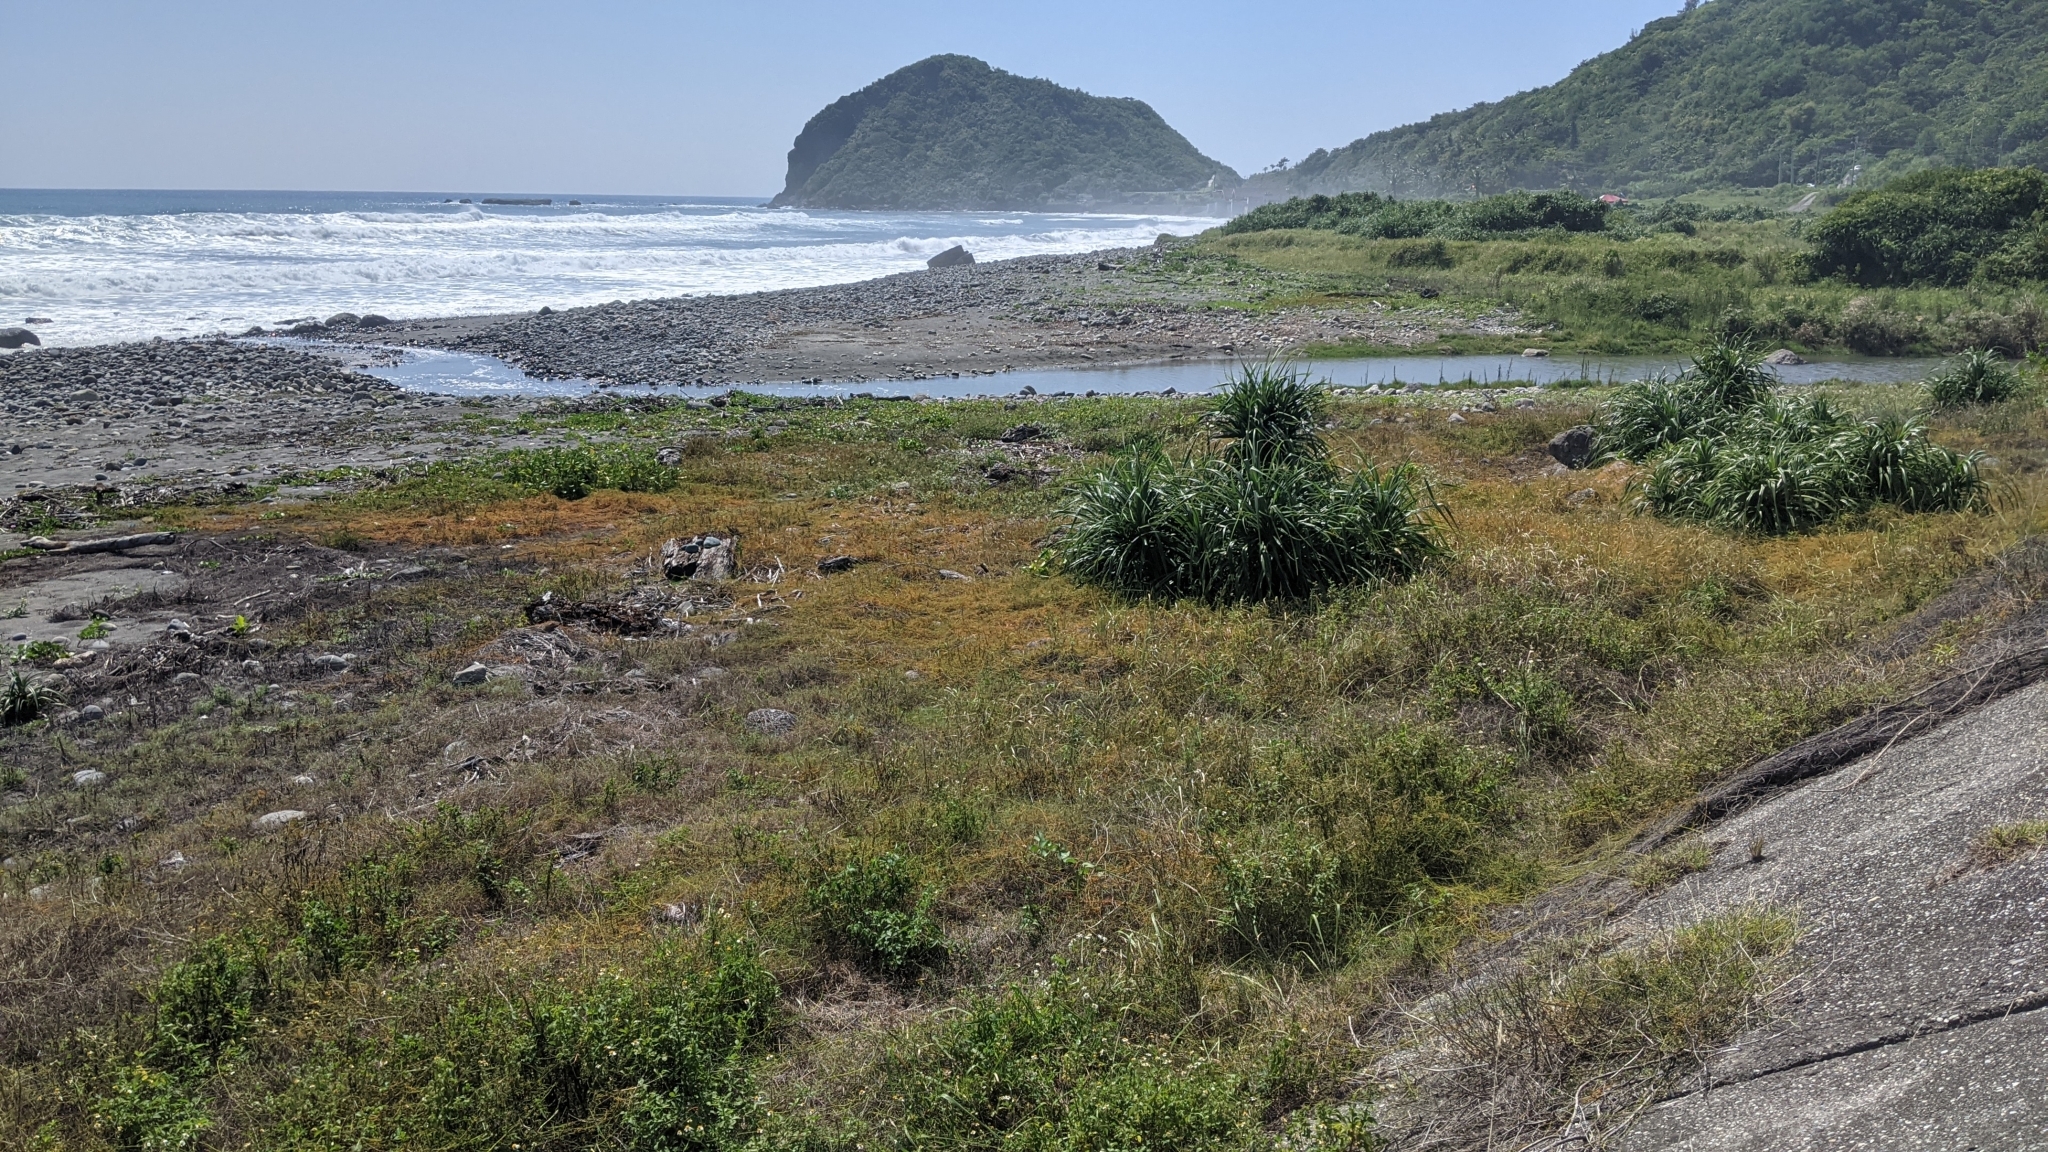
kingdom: Plantae
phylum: Tracheophyta
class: Magnoliopsida
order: Laurales
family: Lauraceae
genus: Cassytha
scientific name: Cassytha filiformis
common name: Dodder-laurel
